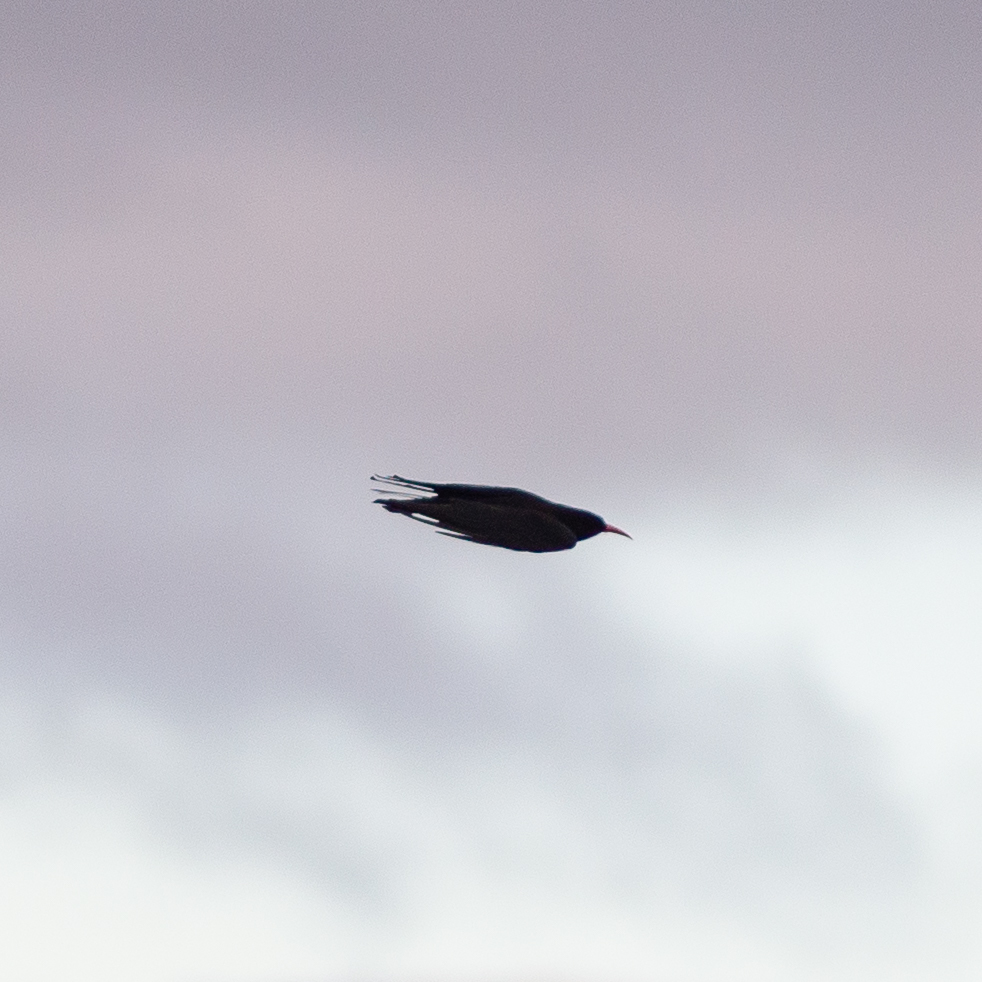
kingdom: Animalia
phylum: Chordata
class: Aves
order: Passeriformes
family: Corvidae
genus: Pyrrhocorax
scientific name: Pyrrhocorax pyrrhocorax
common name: Red-billed chough
